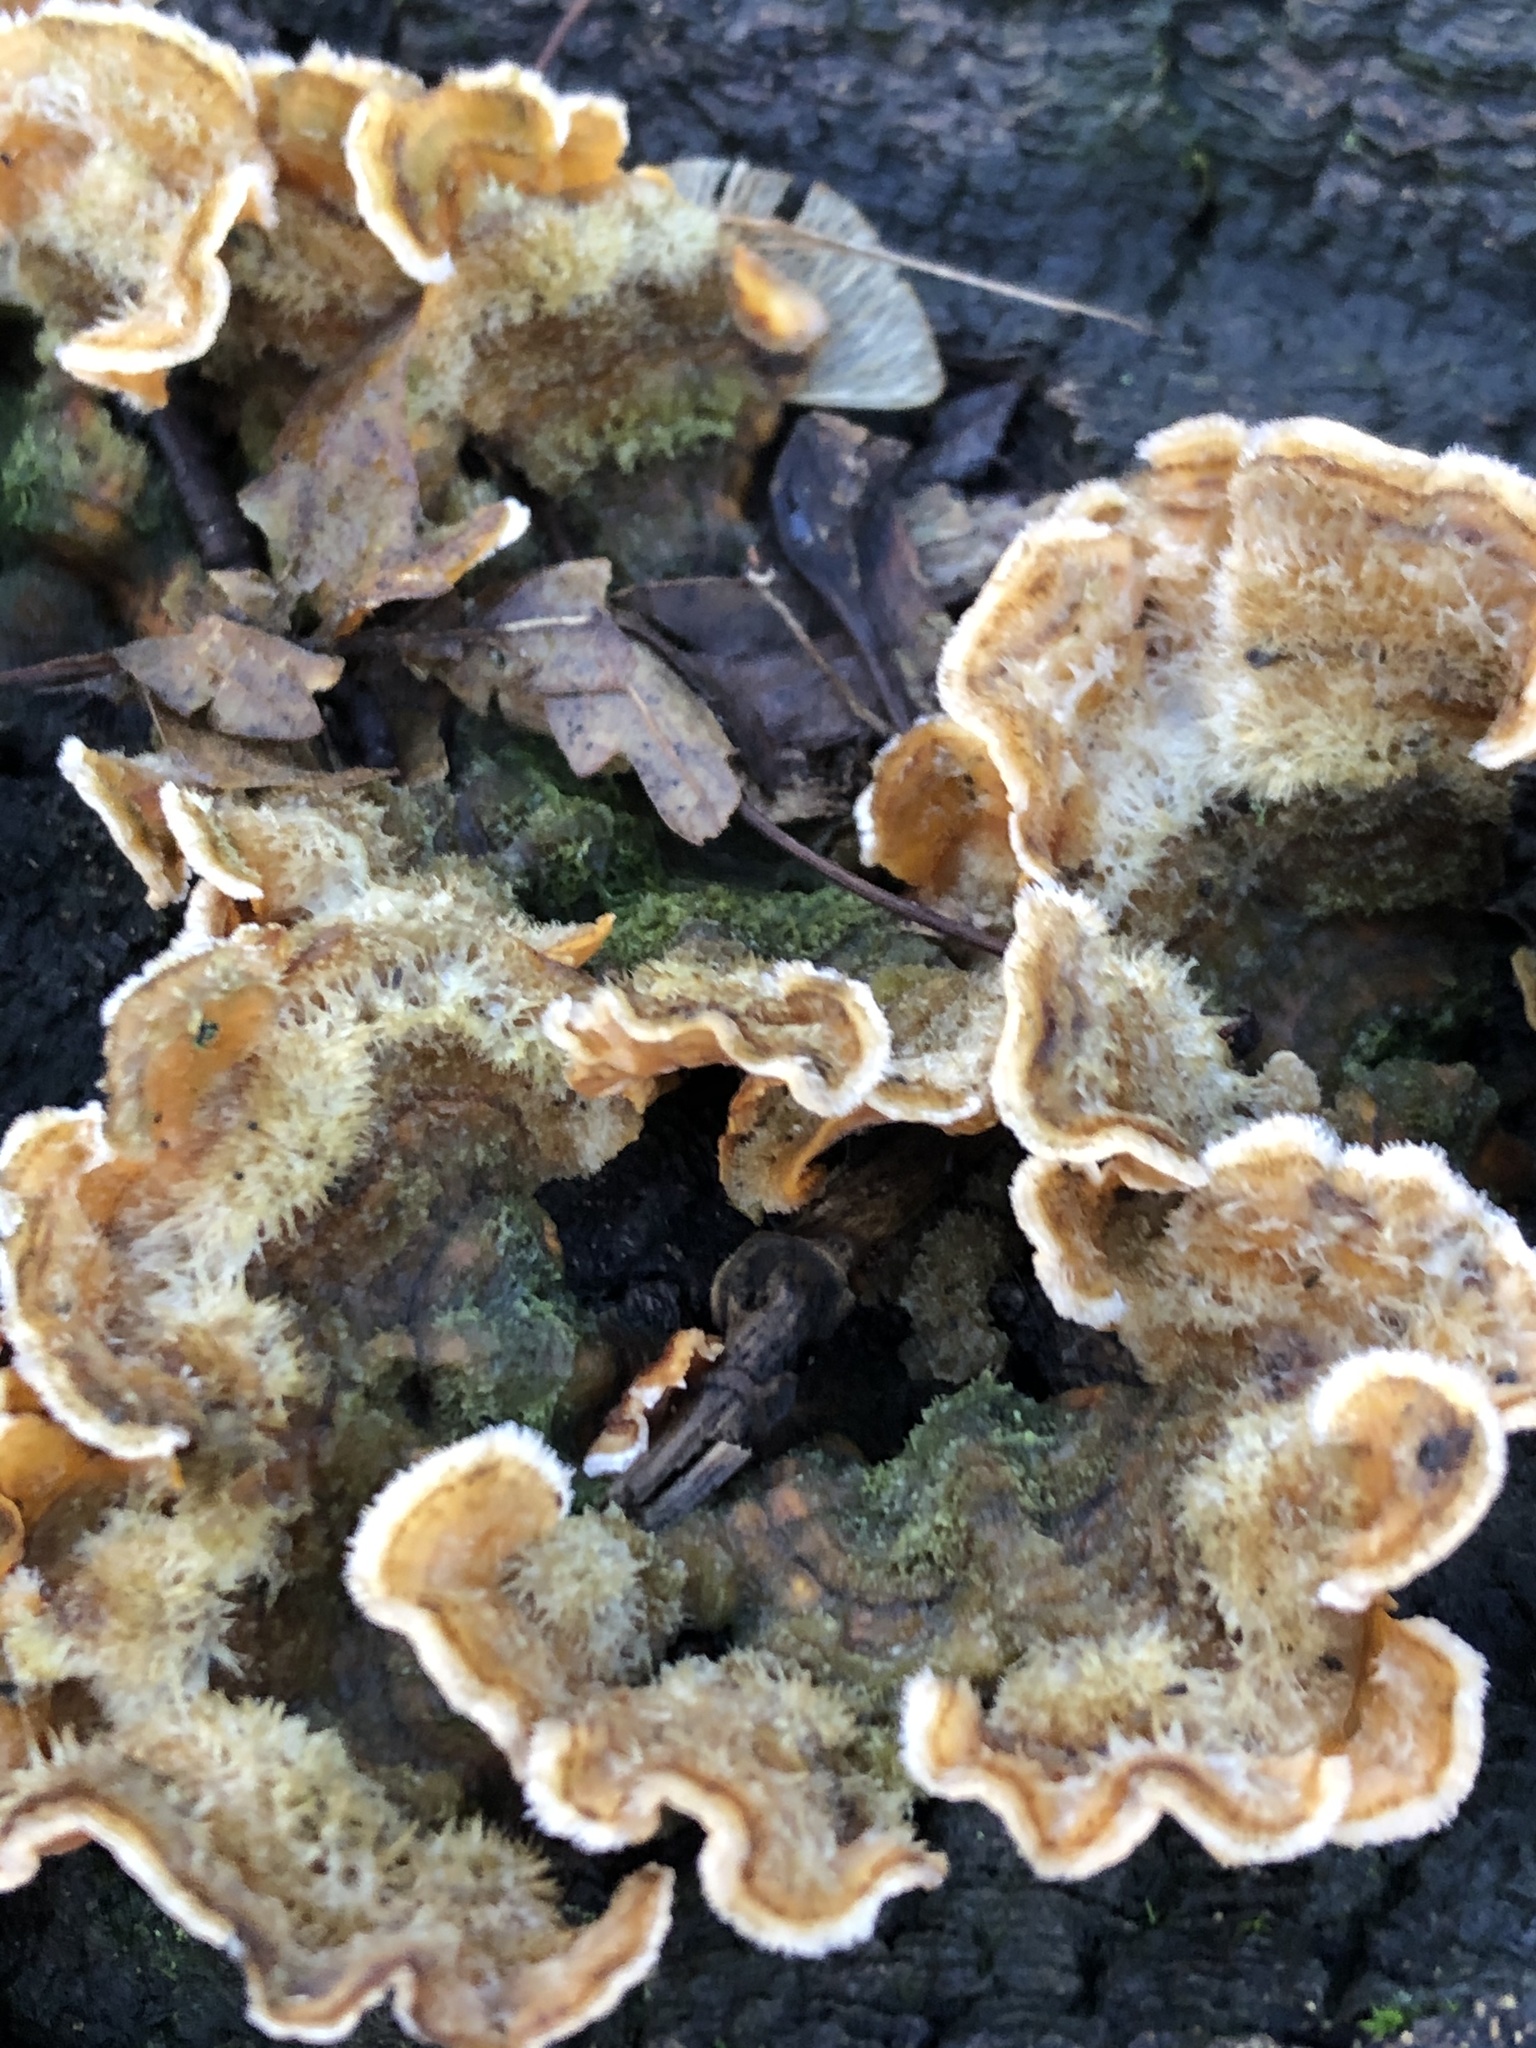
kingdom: Fungi
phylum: Basidiomycota
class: Agaricomycetes
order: Russulales
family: Stereaceae
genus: Stereum
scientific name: Stereum hirsutum
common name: Hairy curtain crust
